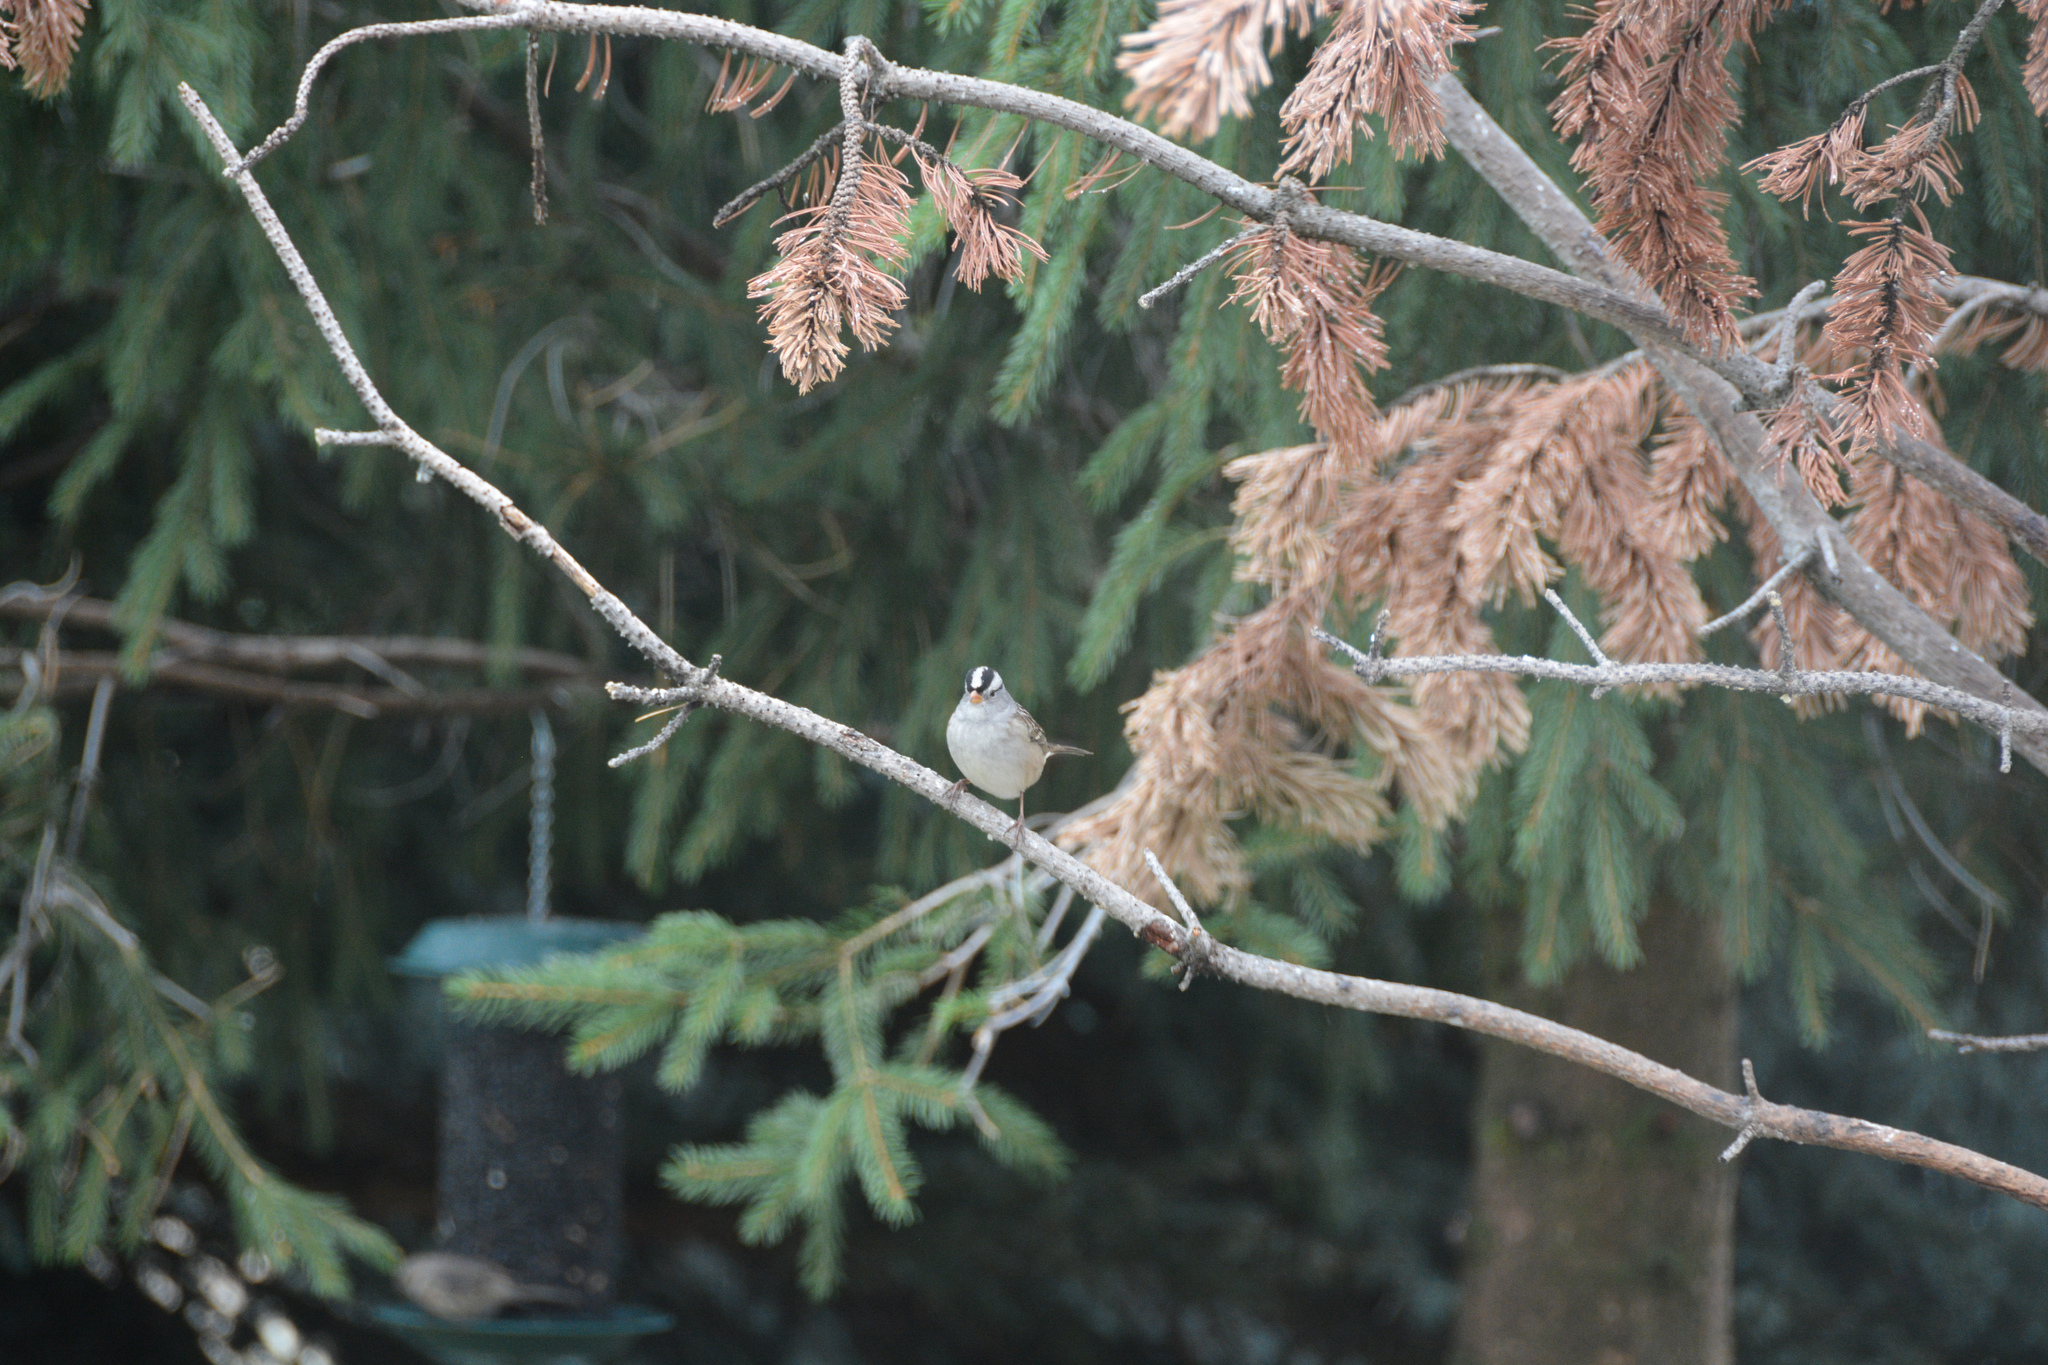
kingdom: Animalia
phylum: Chordata
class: Aves
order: Passeriformes
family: Passerellidae
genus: Zonotrichia
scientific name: Zonotrichia leucophrys
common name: White-crowned sparrow
